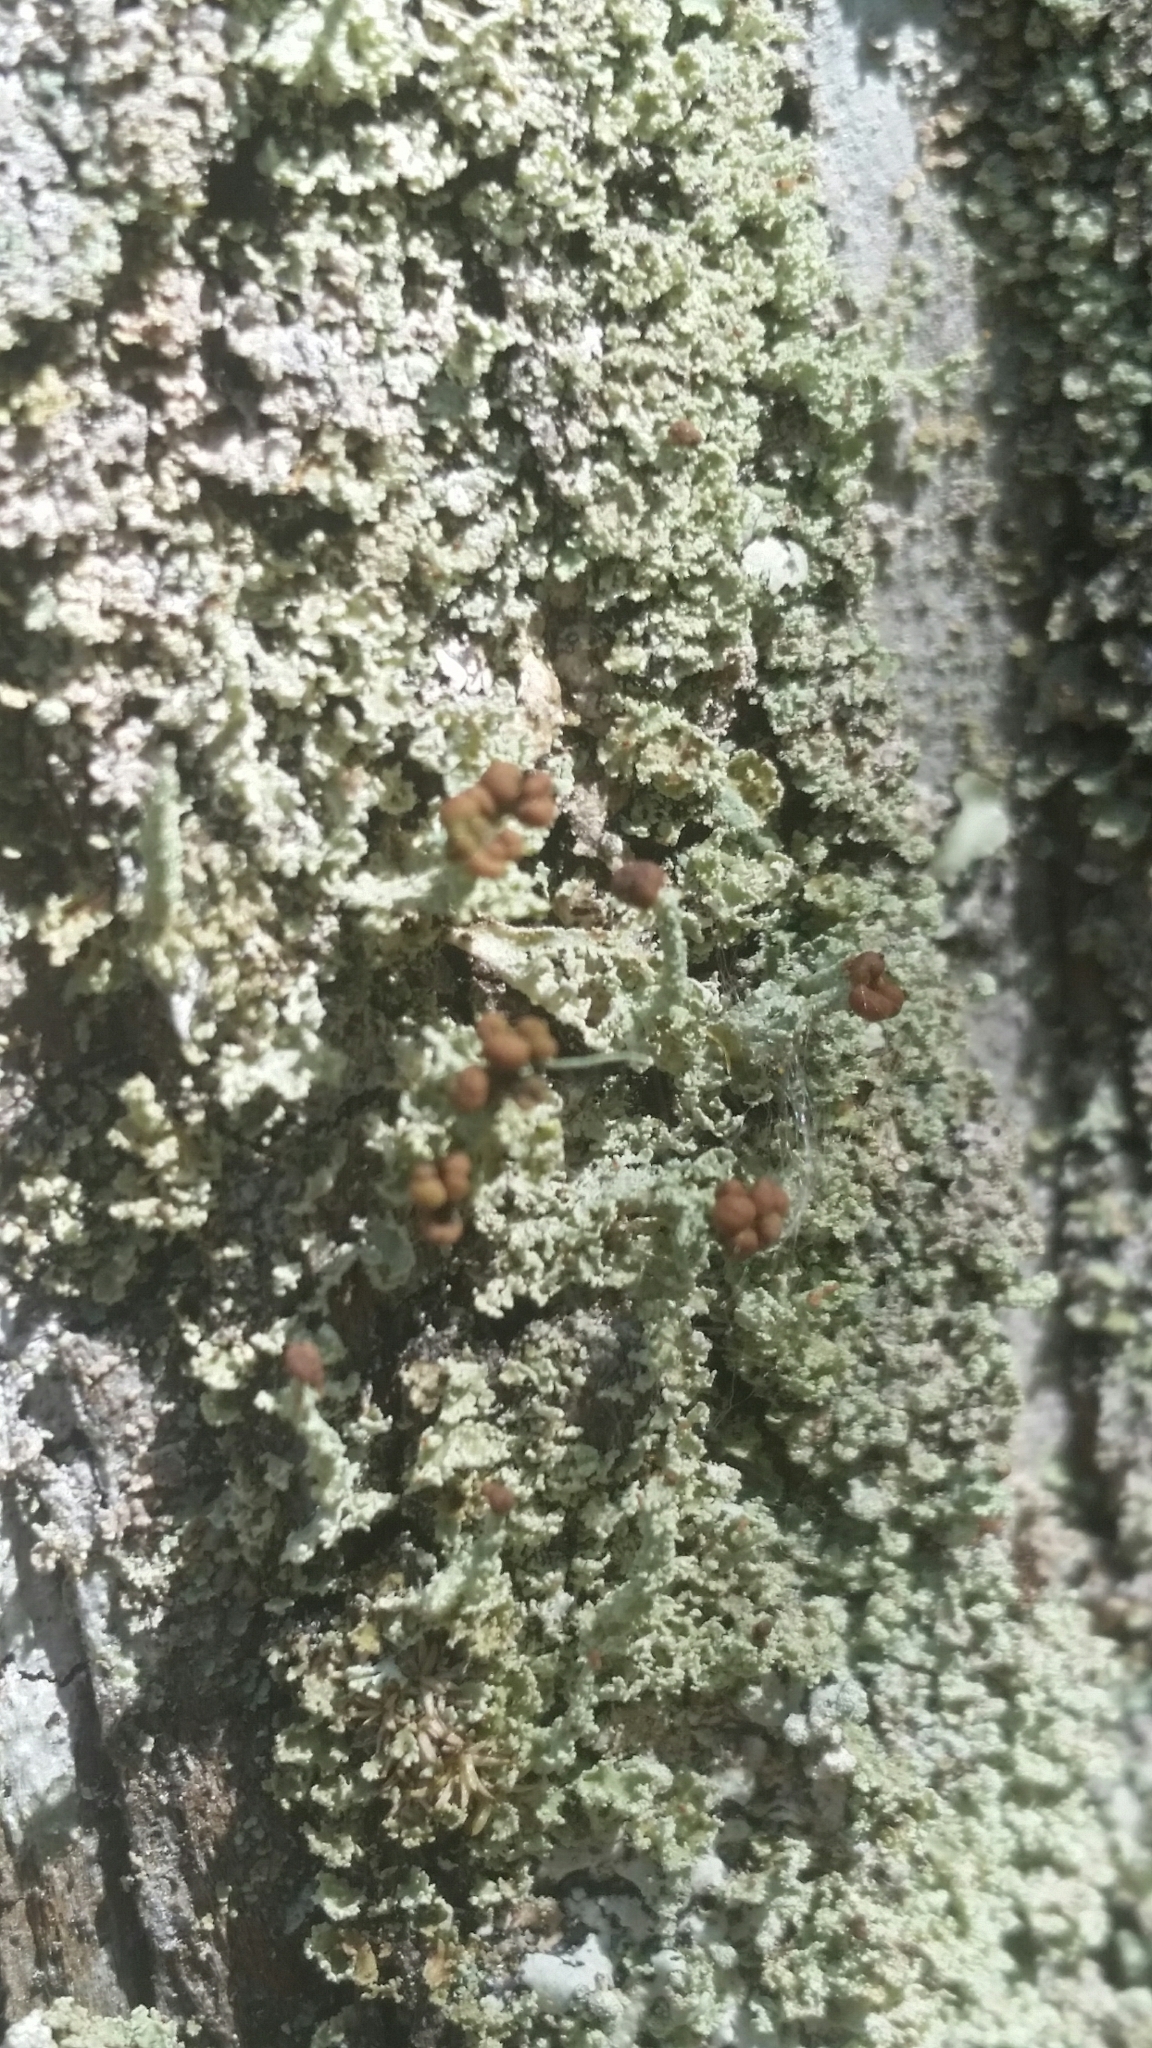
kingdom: Fungi
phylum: Ascomycota
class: Lecanoromycetes
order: Lecanorales
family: Cladoniaceae
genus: Cladonia
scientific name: Cladonia beaumontii
